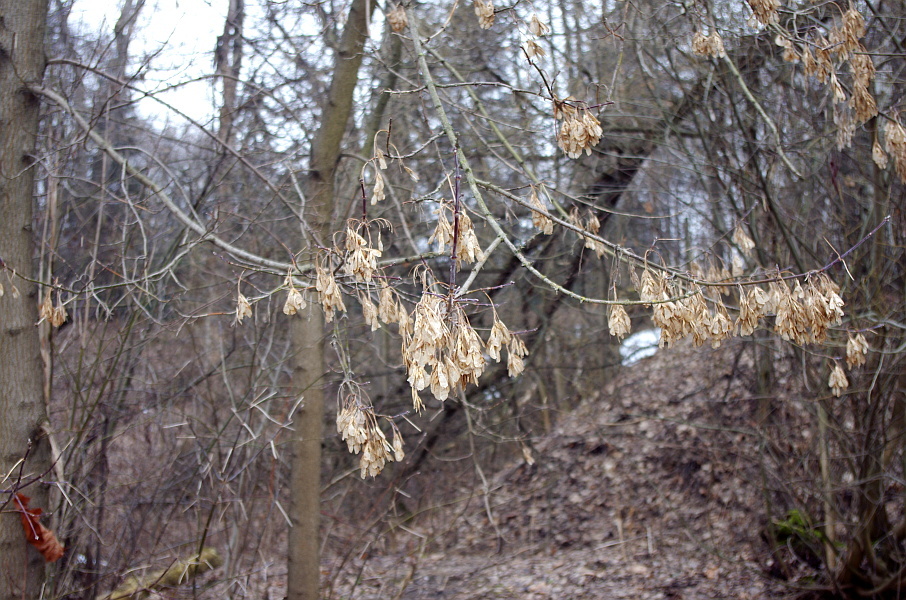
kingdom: Plantae
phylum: Tracheophyta
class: Magnoliopsida
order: Sapindales
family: Sapindaceae
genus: Acer
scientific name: Acer negundo
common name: Ashleaf maple
